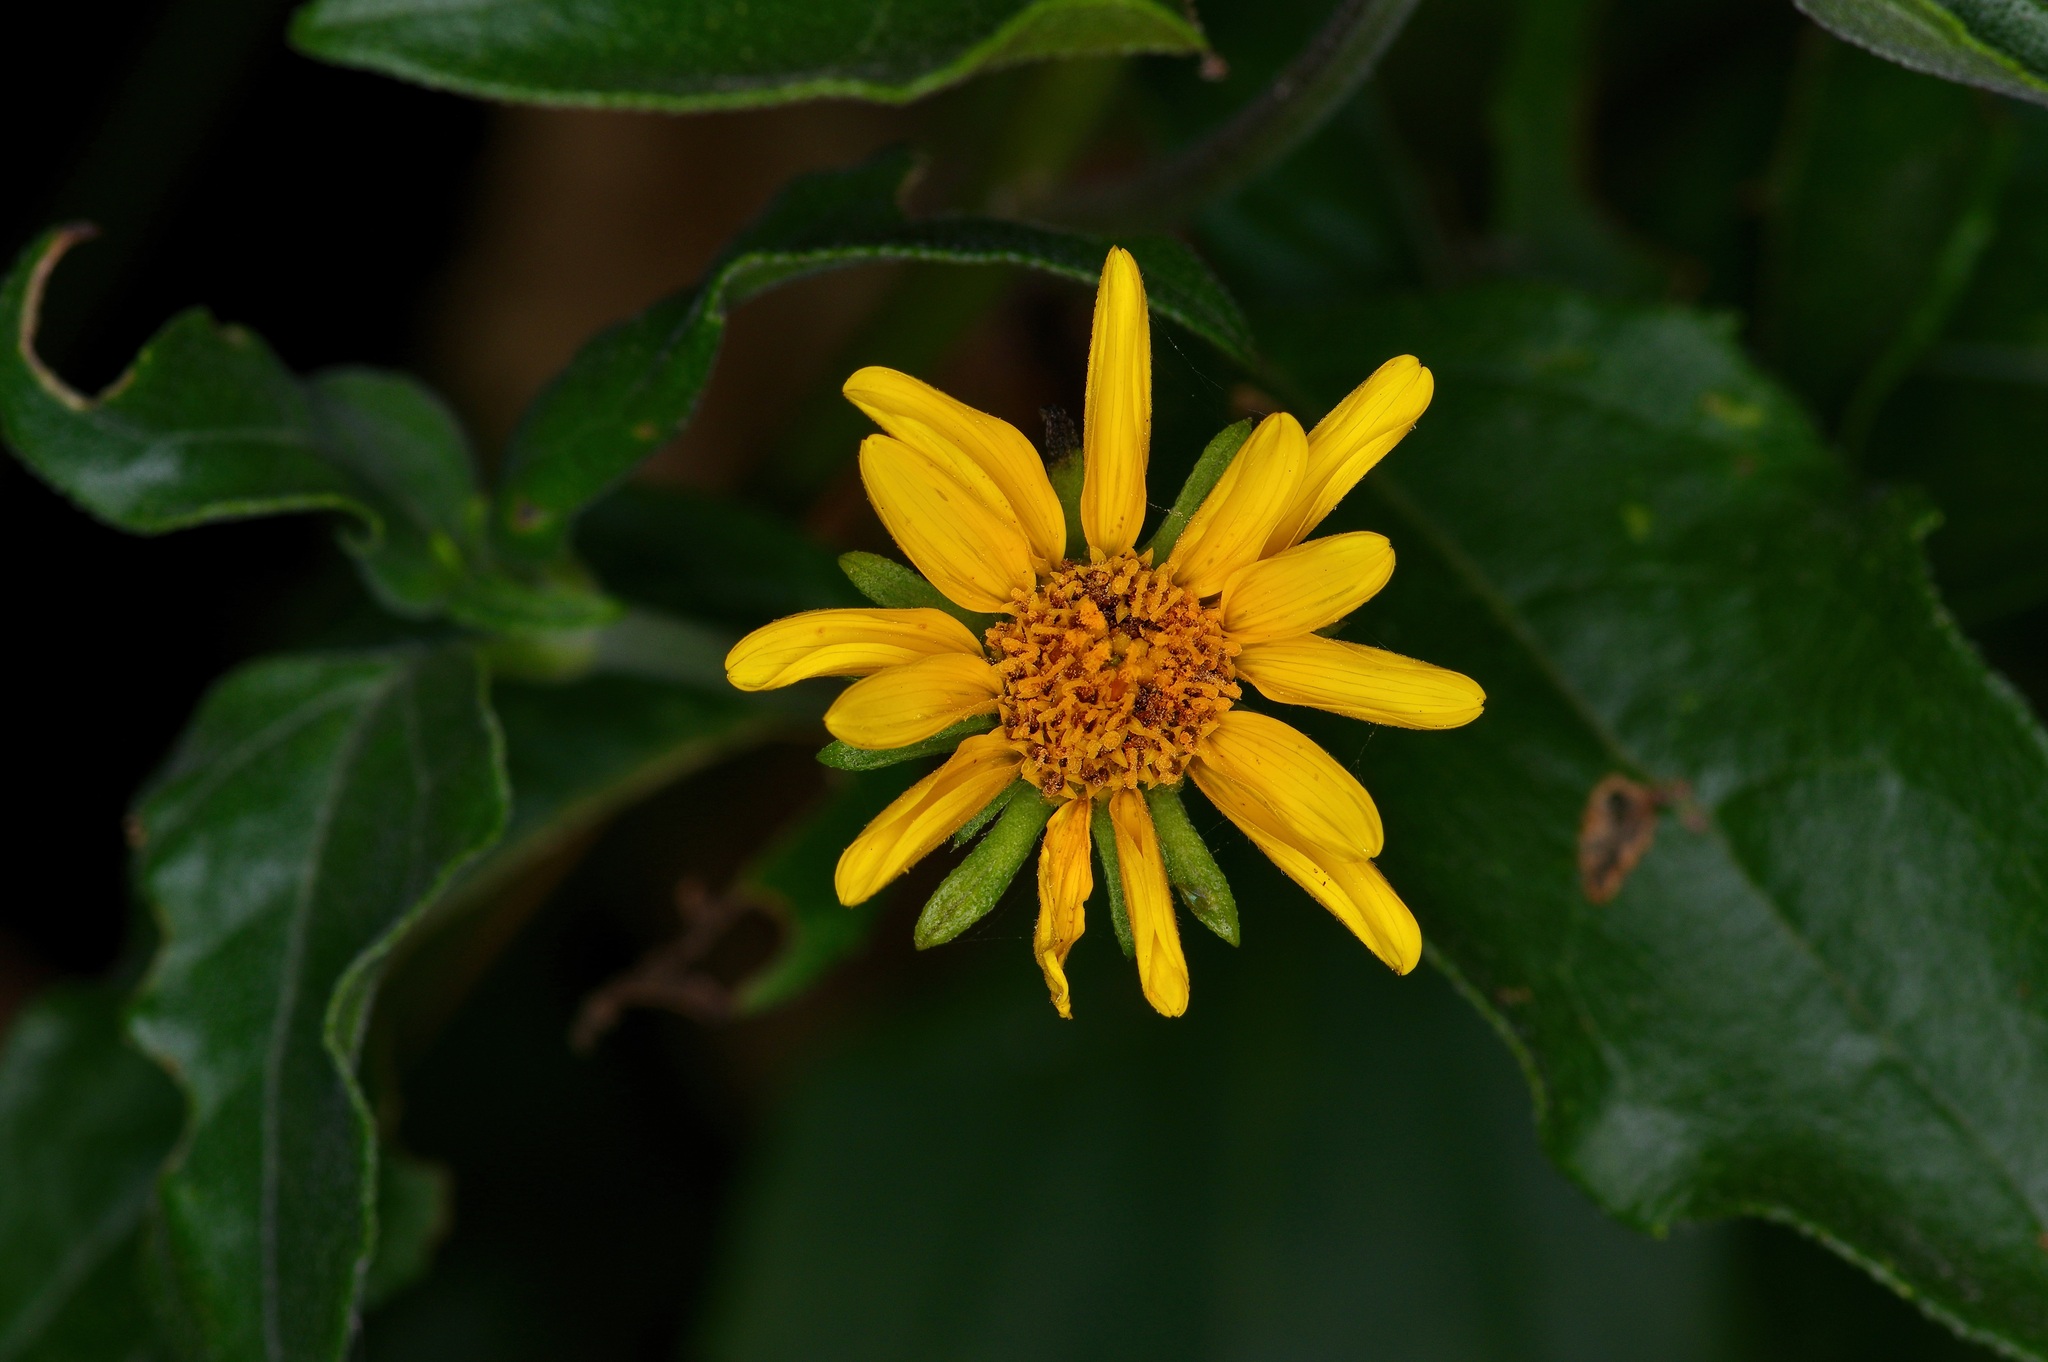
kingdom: Plantae
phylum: Tracheophyta
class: Magnoliopsida
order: Asterales
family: Asteraceae
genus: Viguiera
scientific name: Viguiera dentata
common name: Toothleaf
